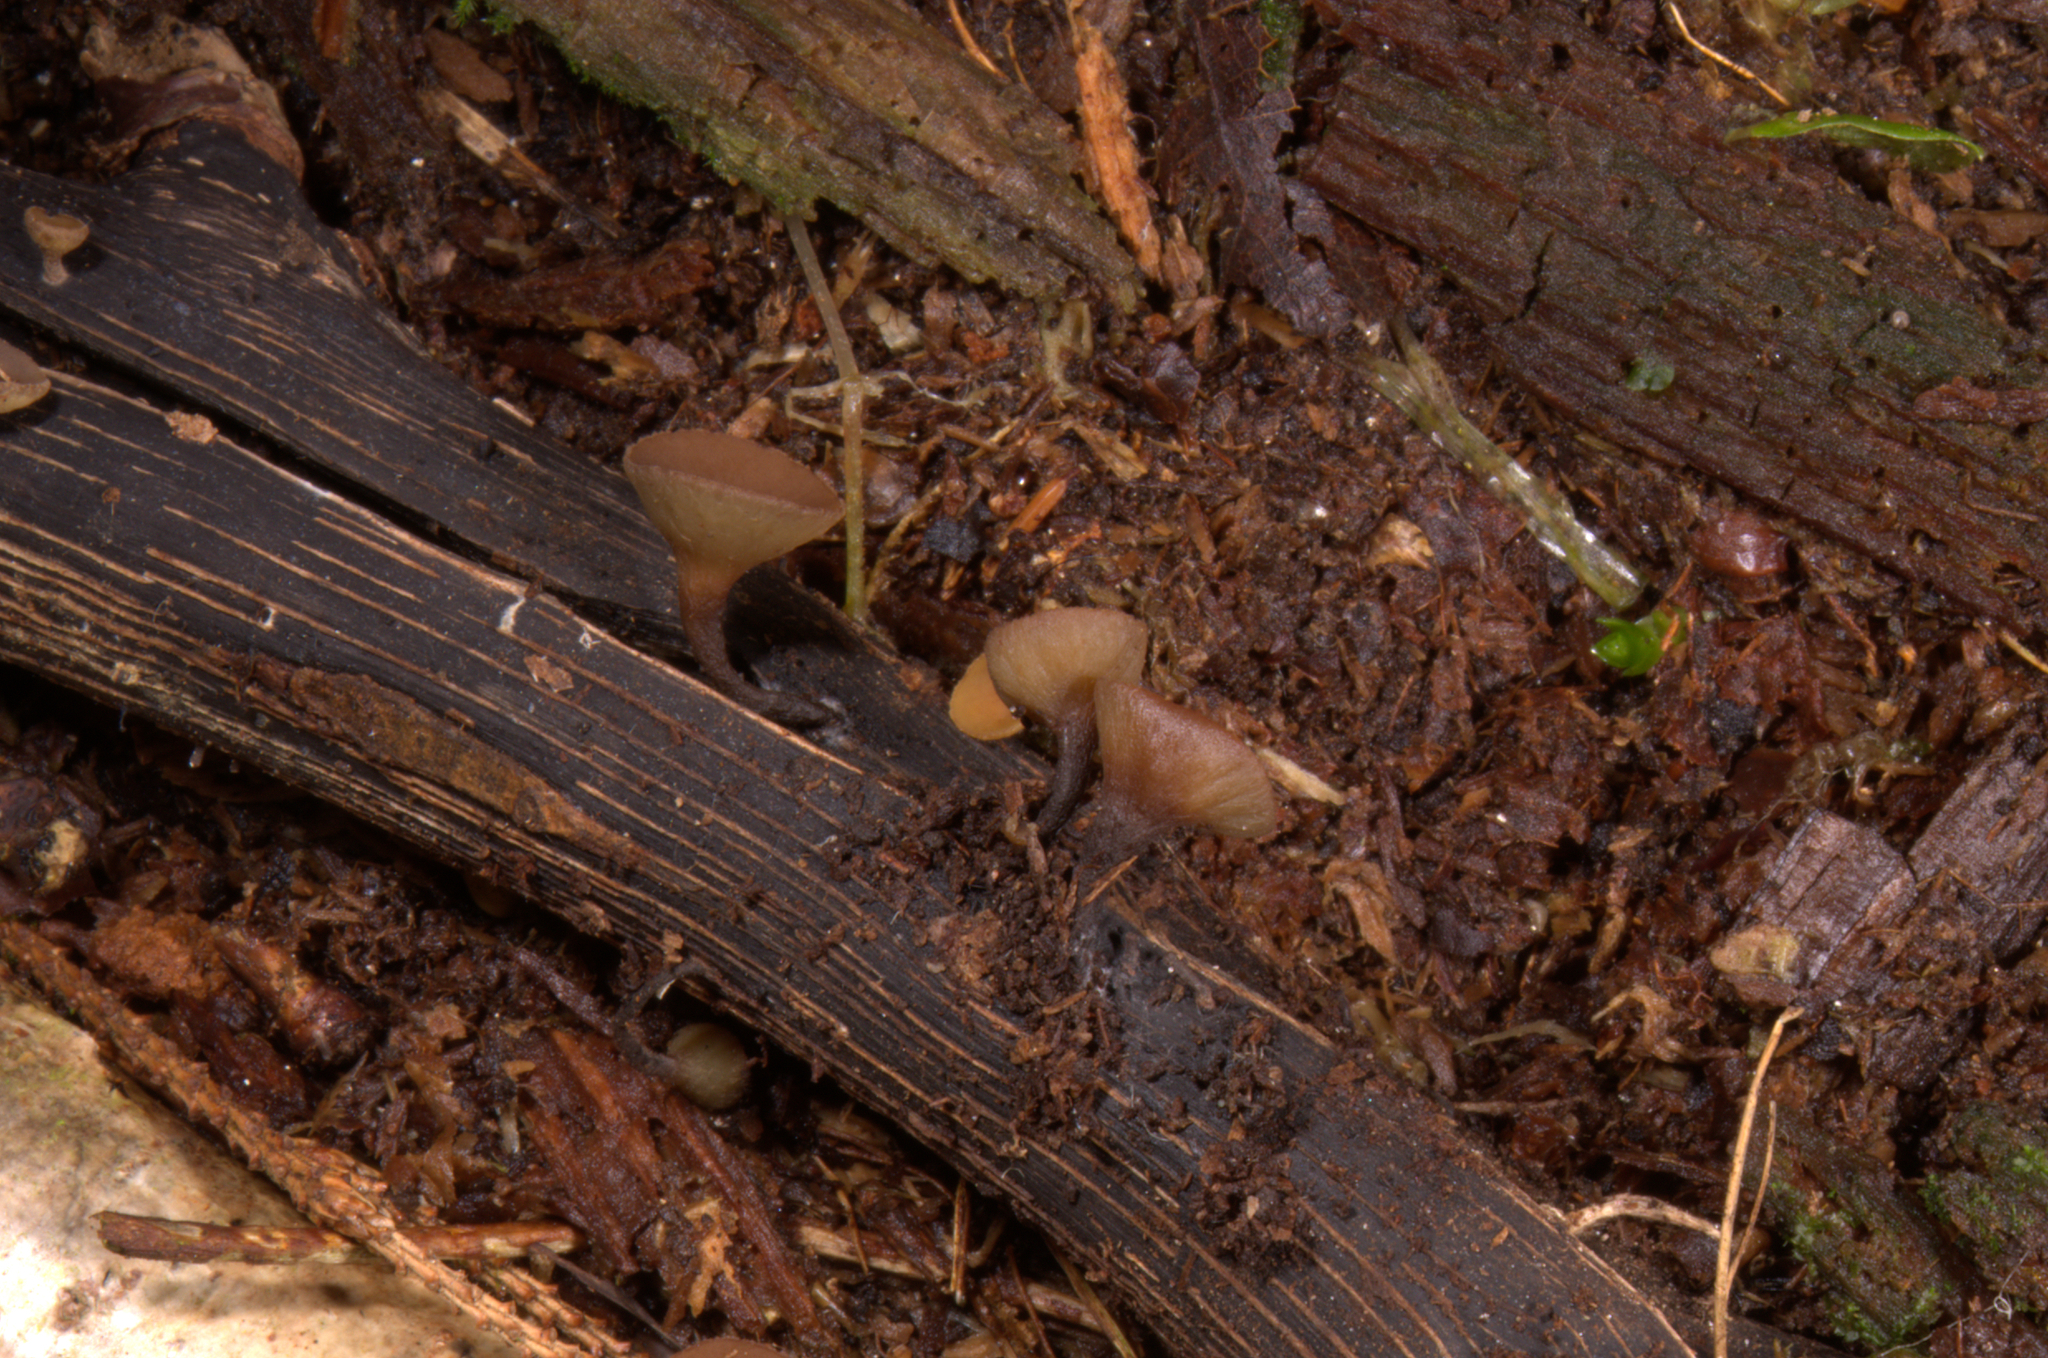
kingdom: Fungi
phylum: Ascomycota
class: Leotiomycetes
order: Helotiales
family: Rutstroemiaceae
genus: Rutstroemia
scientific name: Rutstroemia firma
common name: Brown cup
